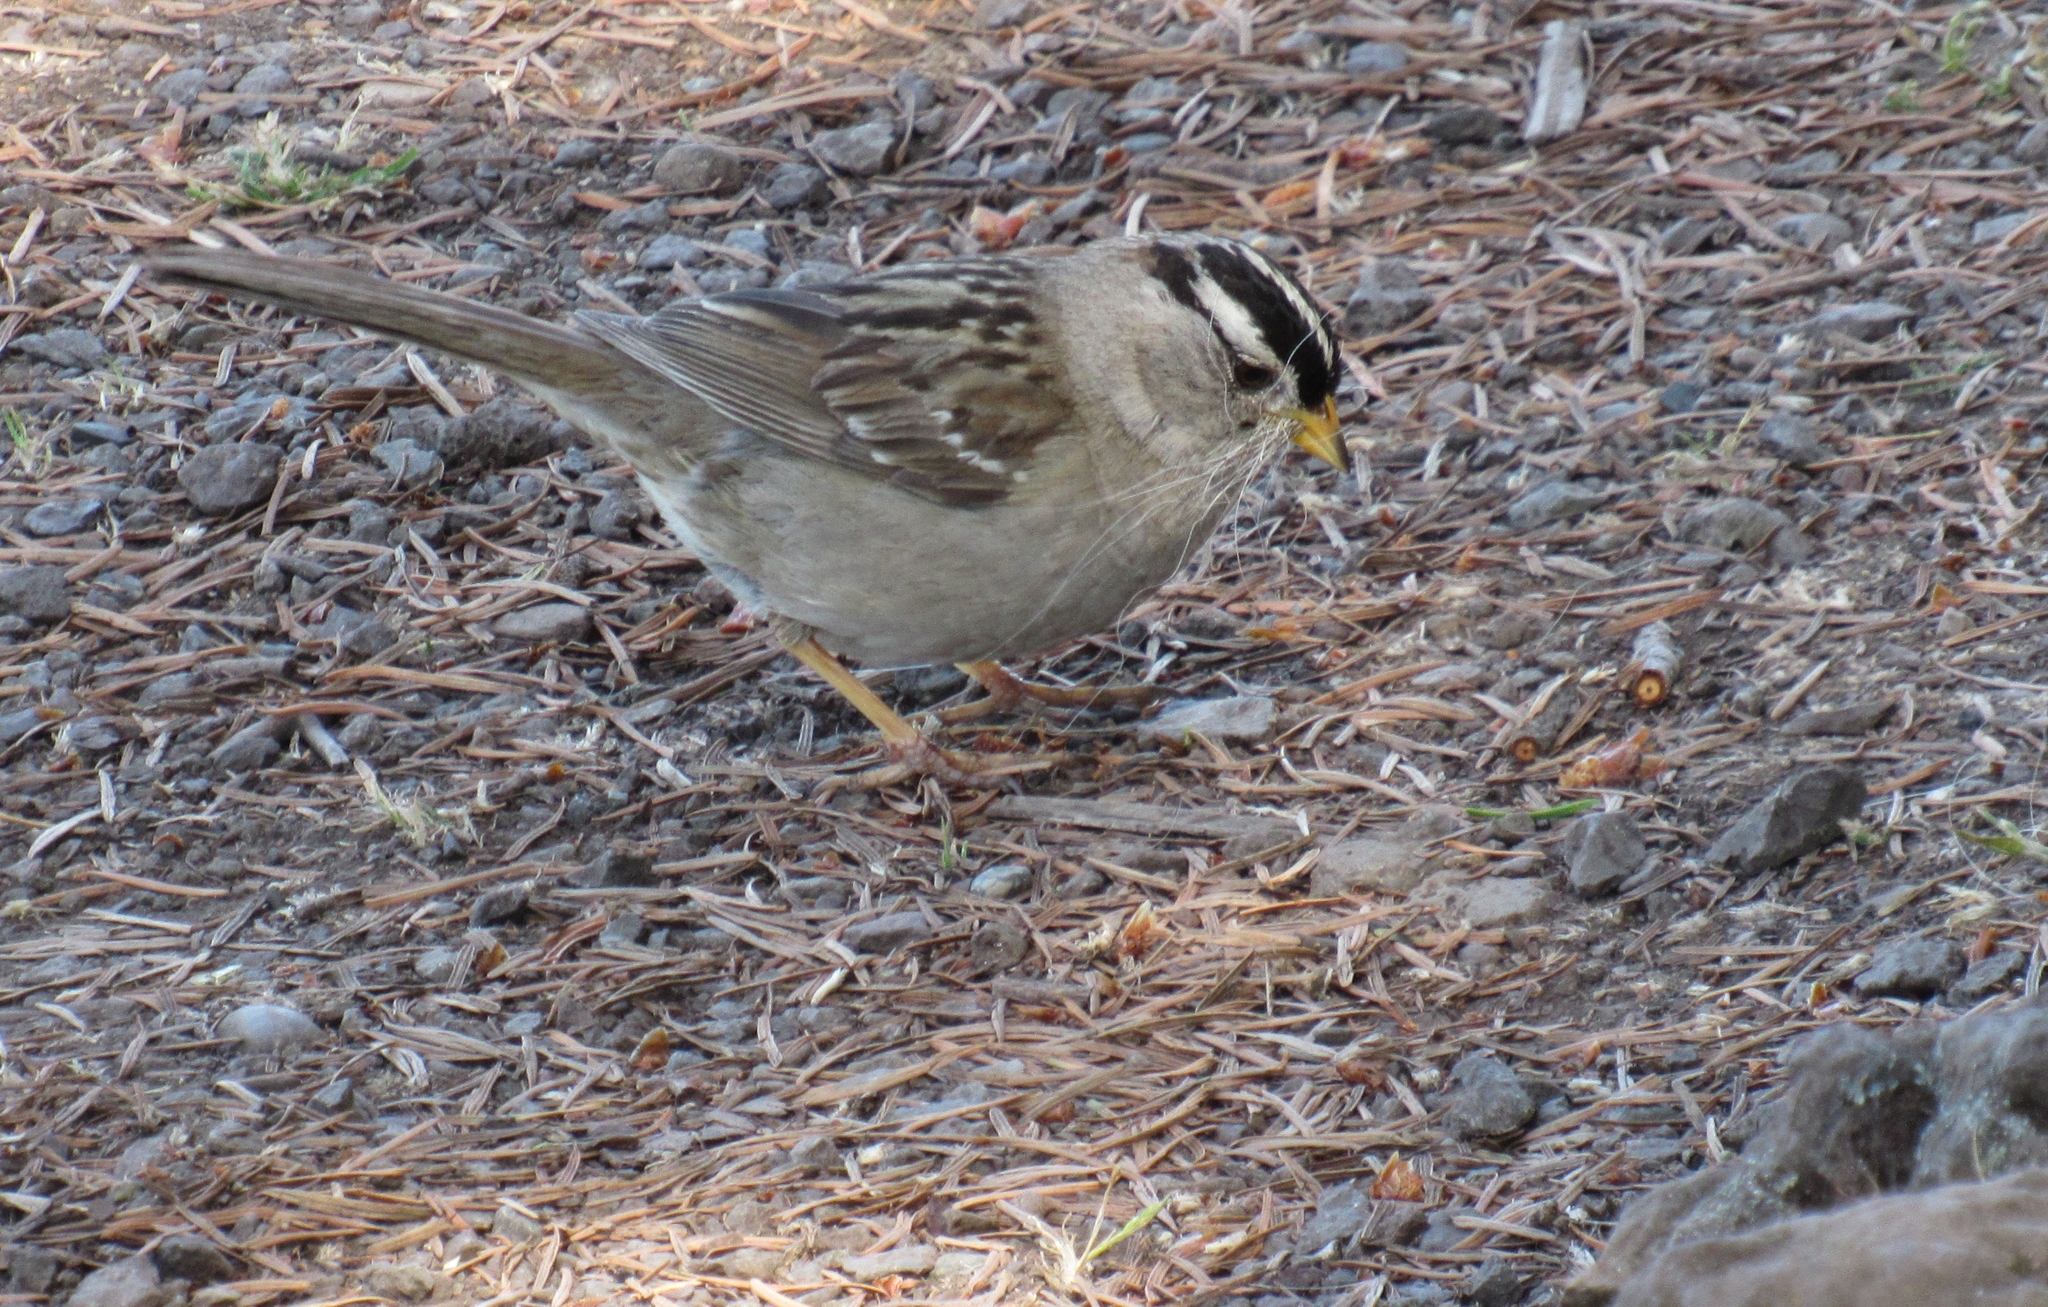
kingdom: Animalia
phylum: Chordata
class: Aves
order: Passeriformes
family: Passerellidae
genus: Zonotrichia
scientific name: Zonotrichia leucophrys
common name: White-crowned sparrow
